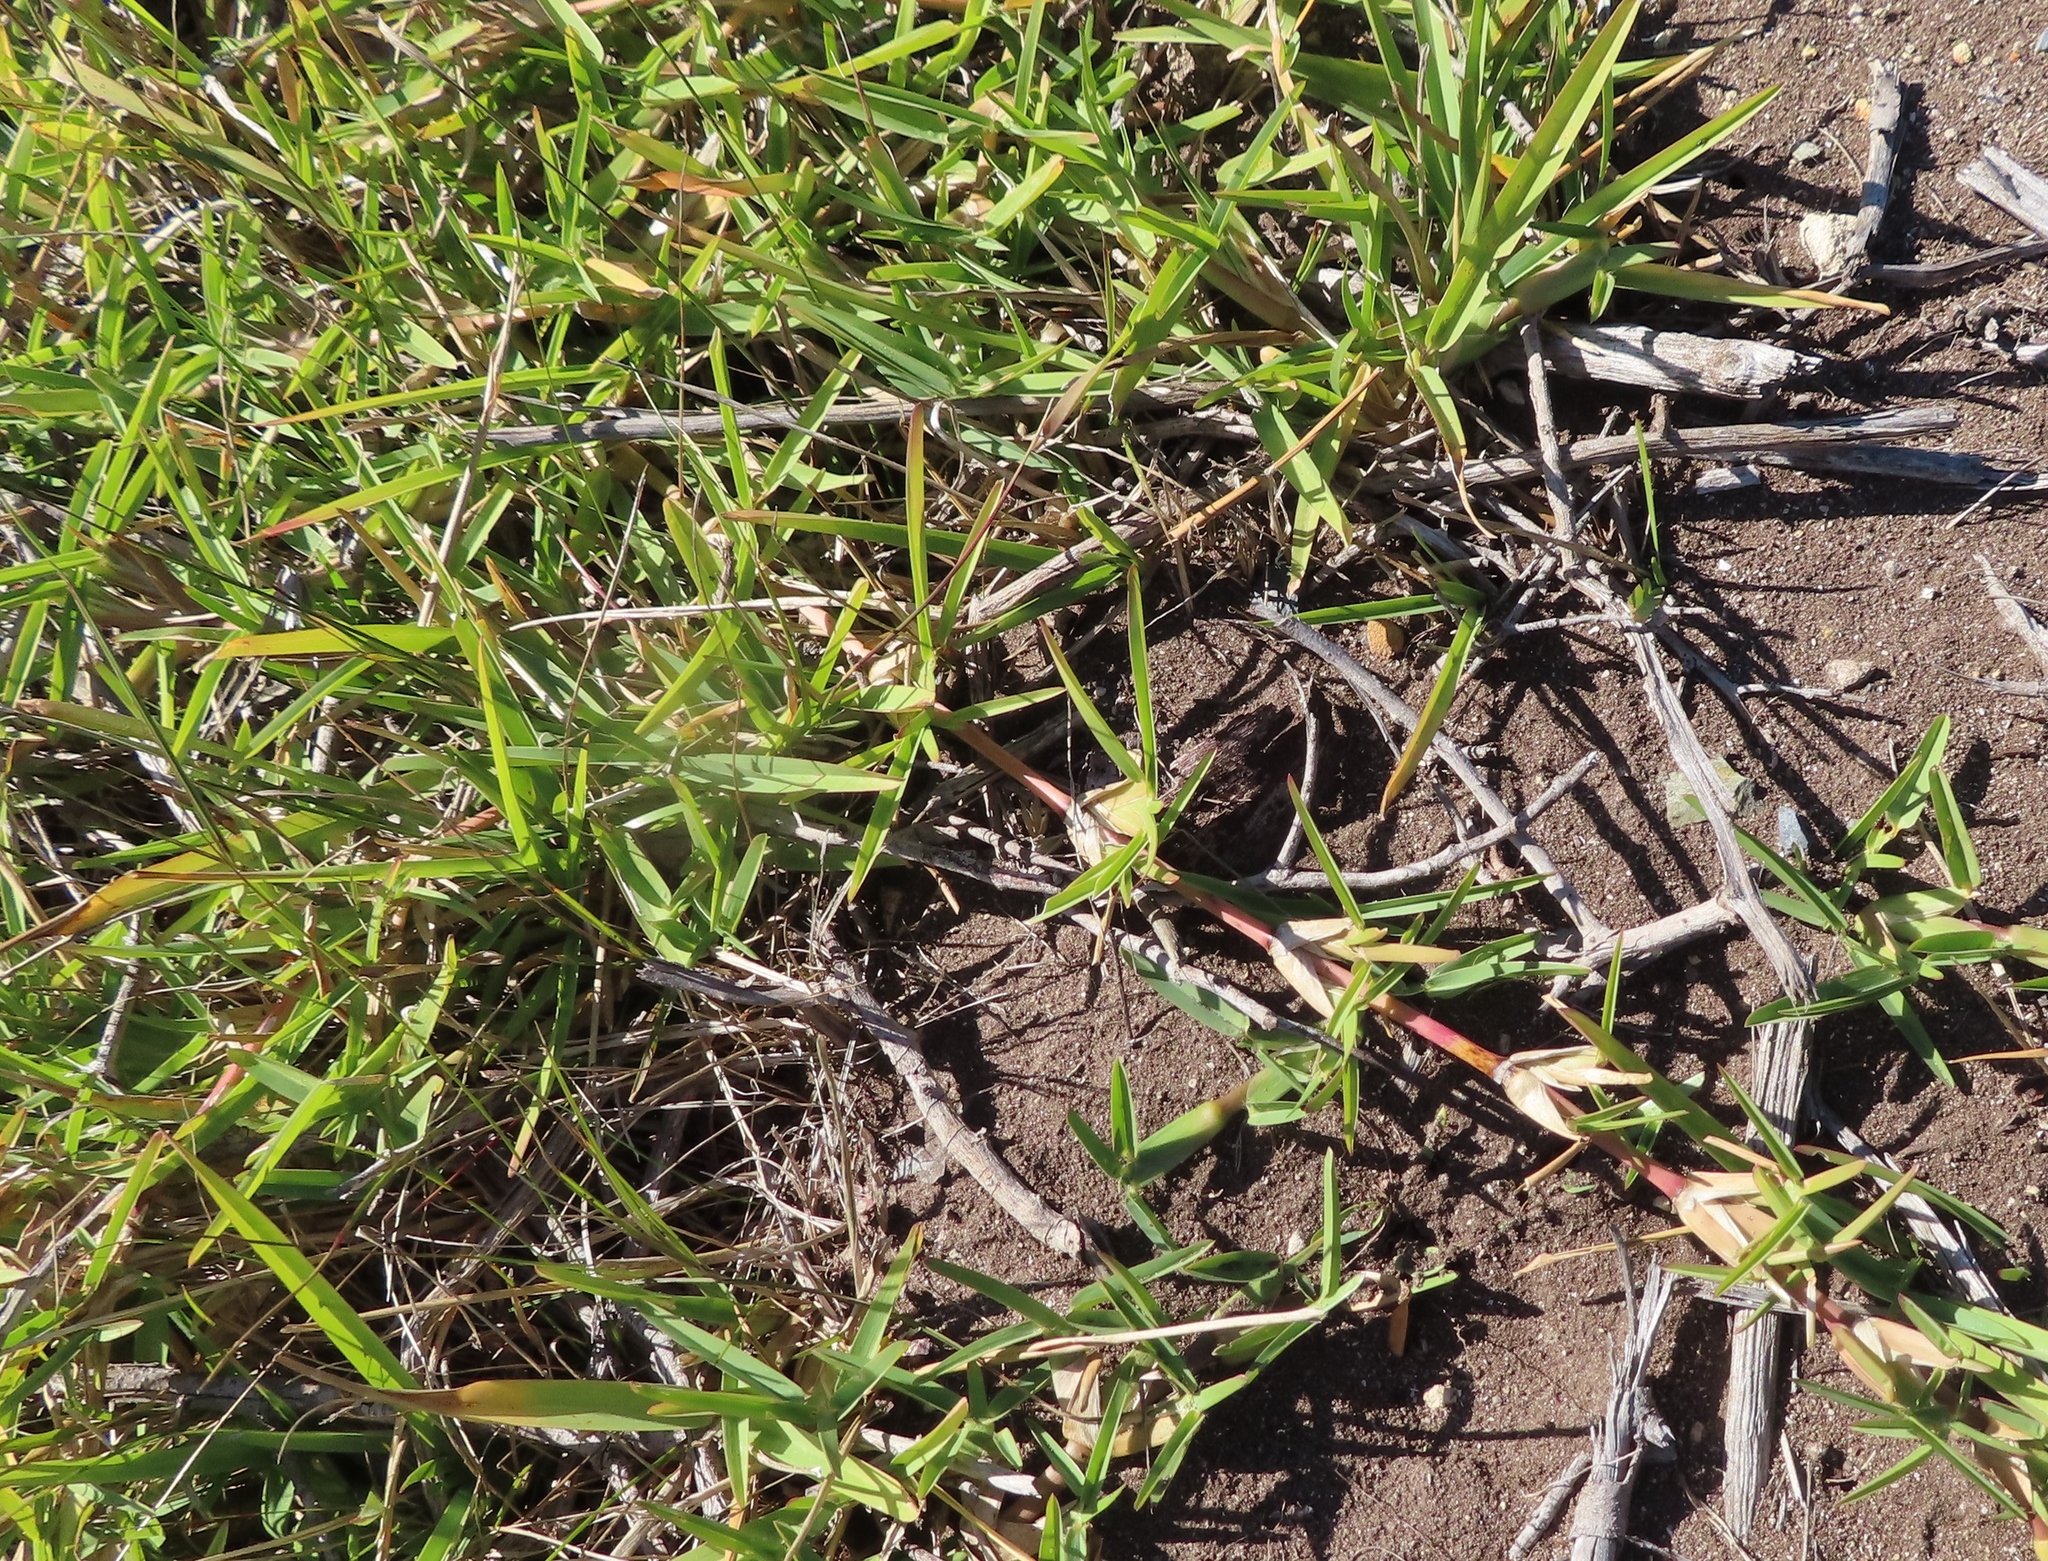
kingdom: Plantae
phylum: Tracheophyta
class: Liliopsida
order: Poales
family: Poaceae
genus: Stenotaphrum
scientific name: Stenotaphrum secundatum
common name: St. augustine grass
